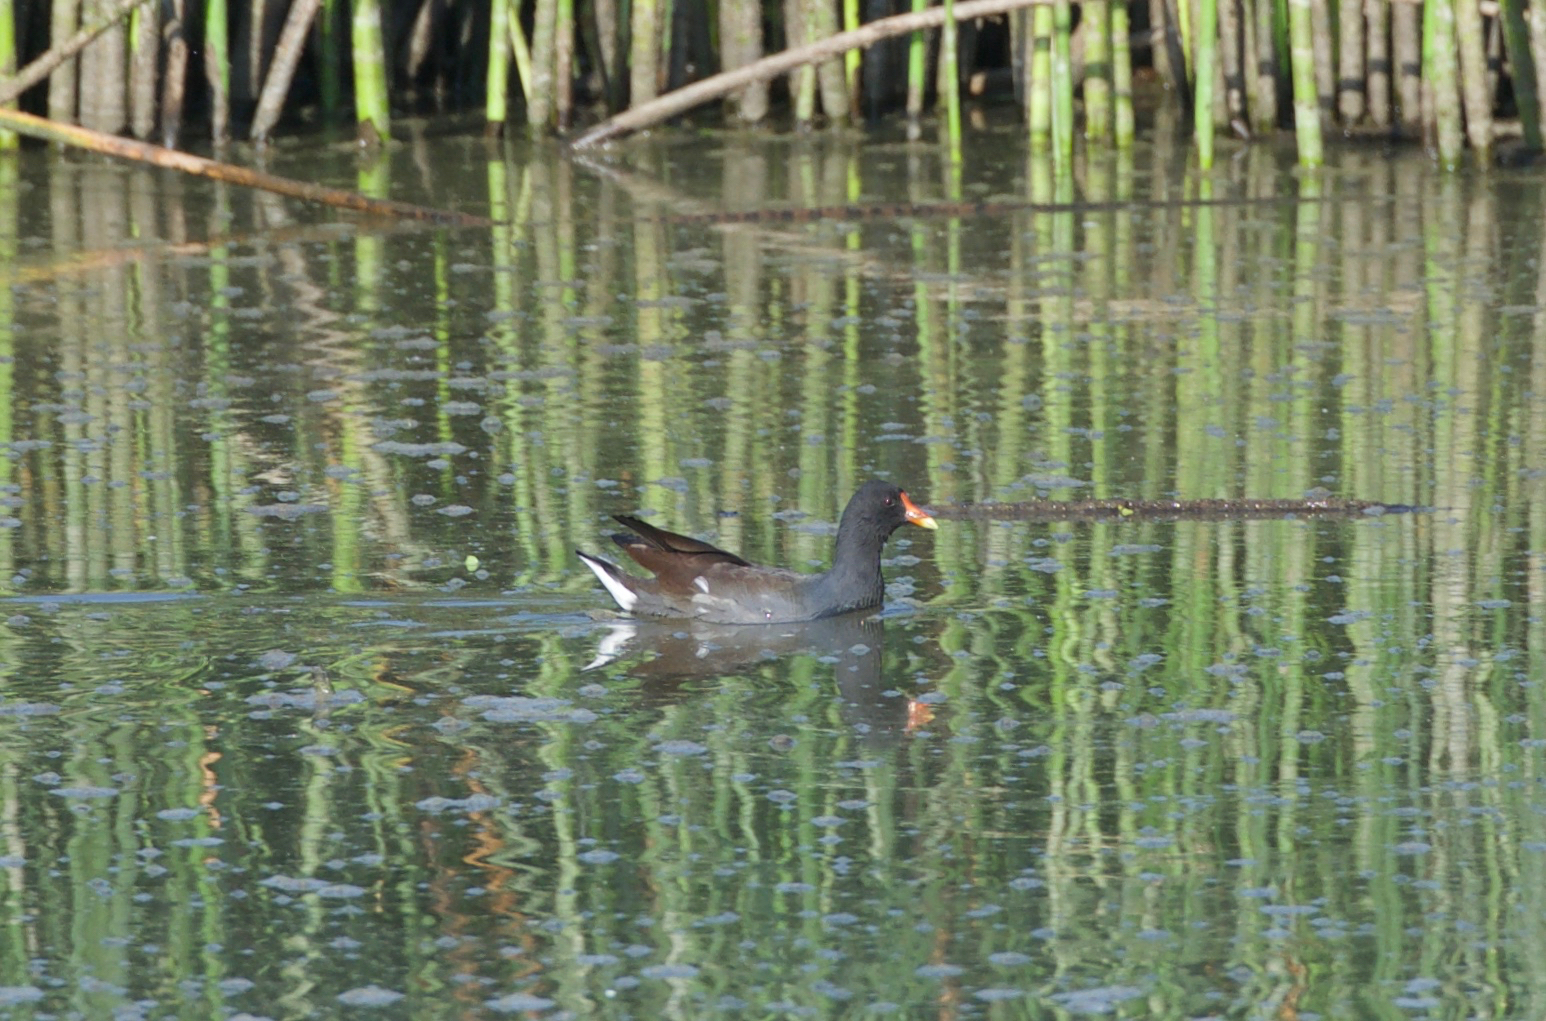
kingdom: Animalia
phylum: Chordata
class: Aves
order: Gruiformes
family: Rallidae
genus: Gallinula
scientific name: Gallinula chloropus
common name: Common moorhen
